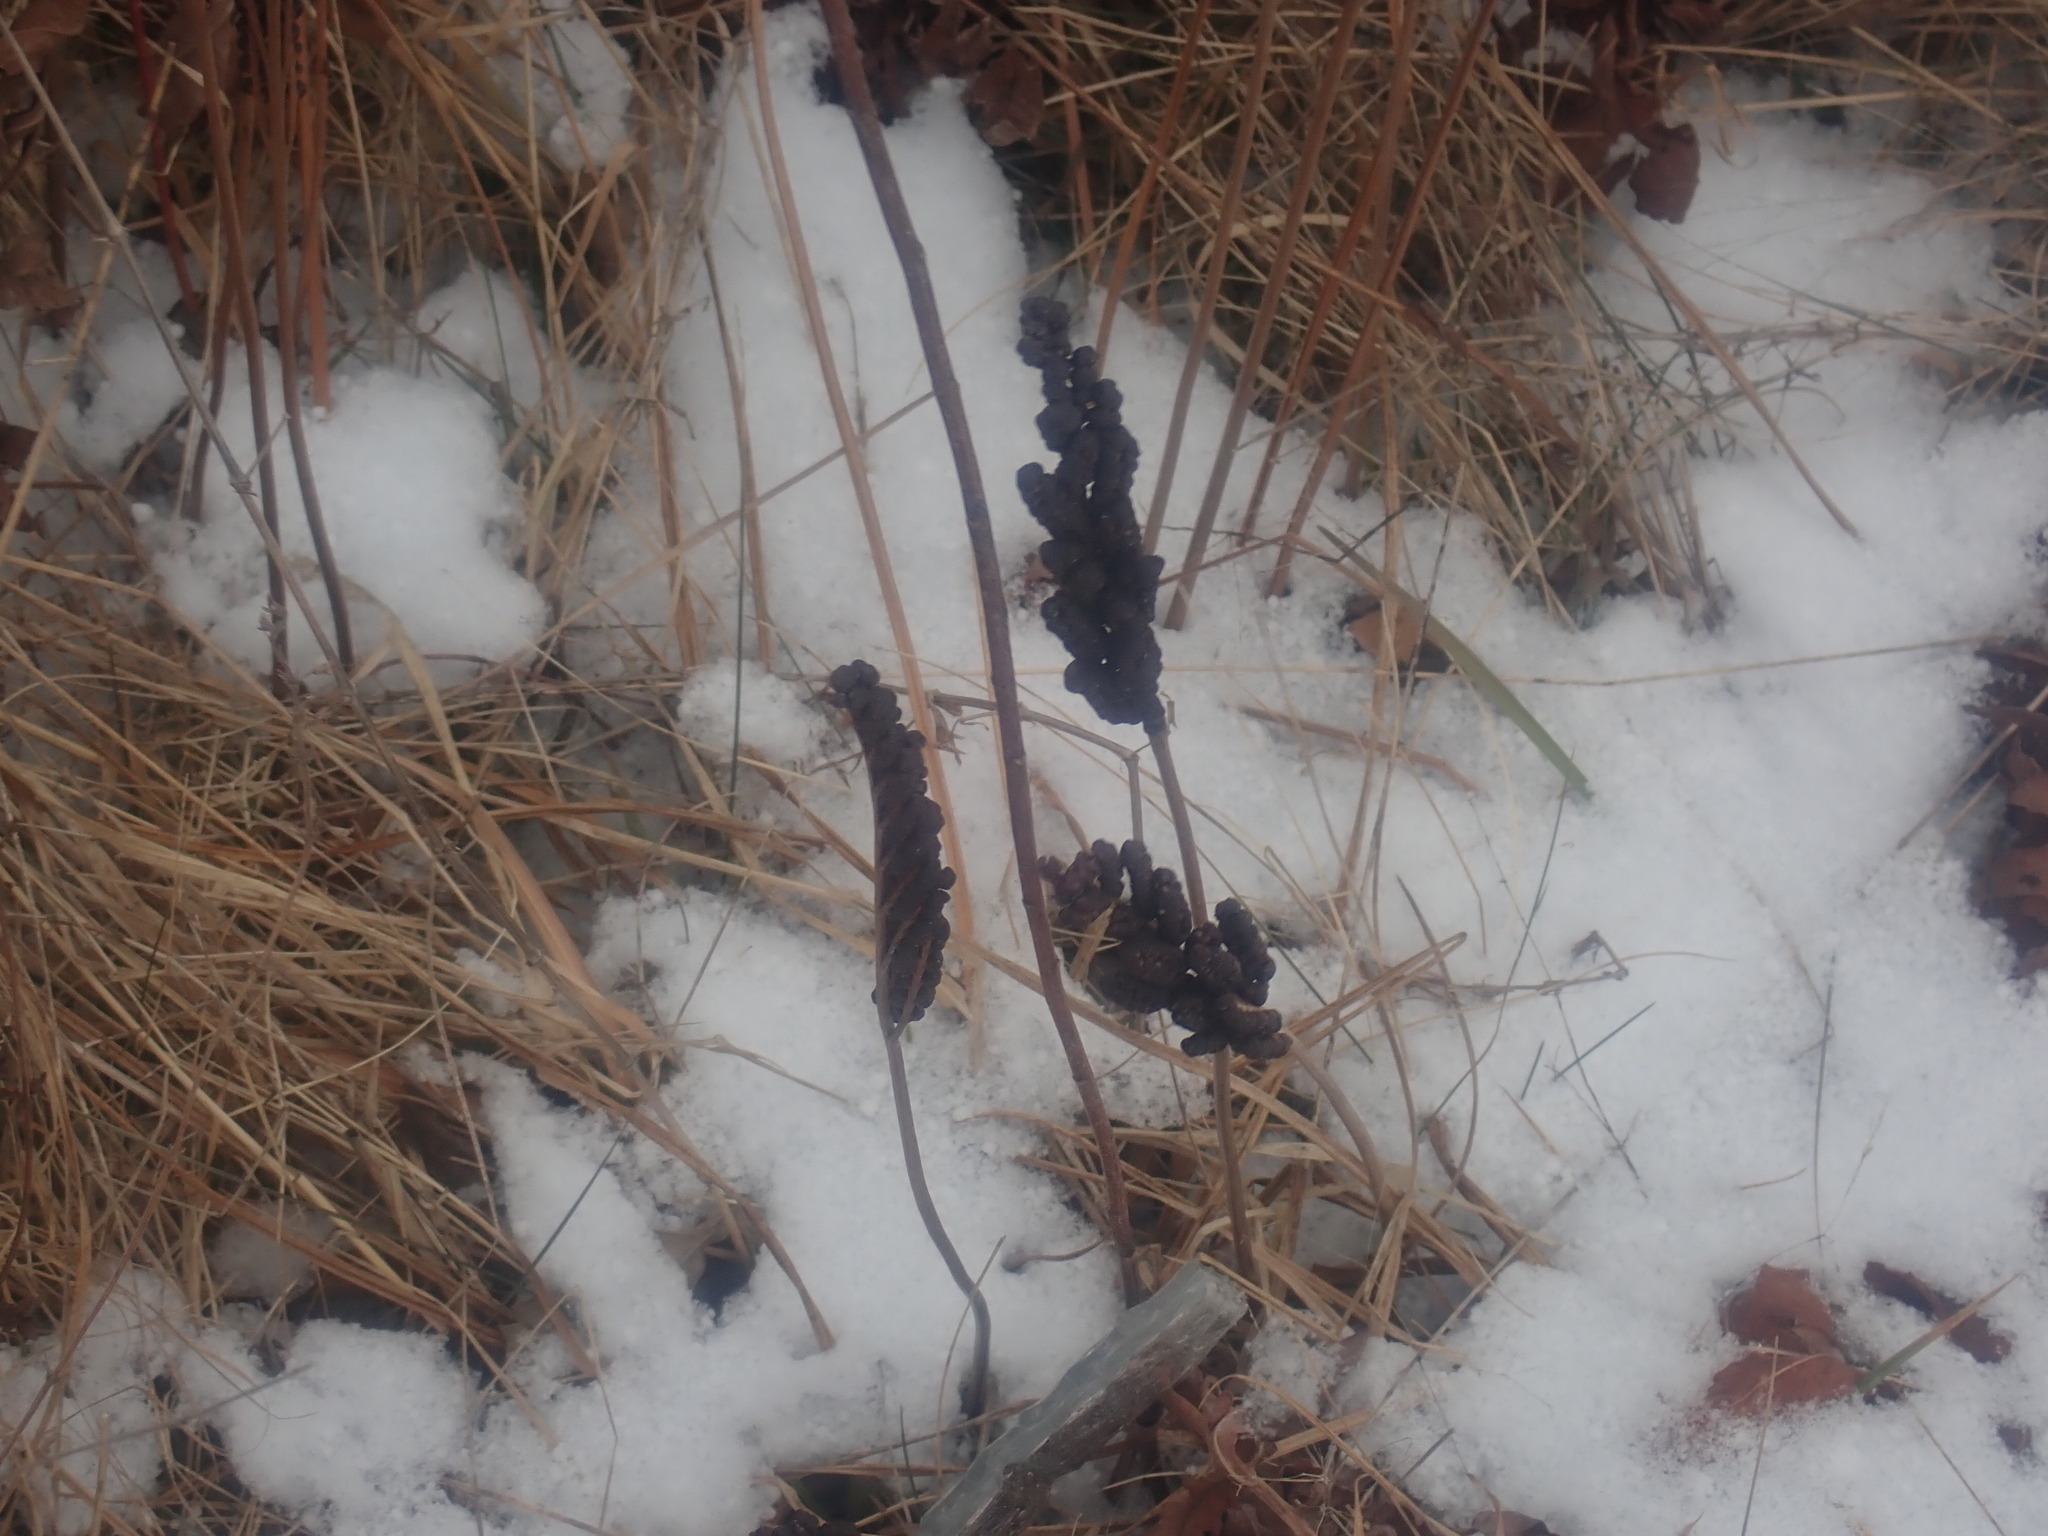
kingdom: Plantae
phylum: Tracheophyta
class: Polypodiopsida
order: Polypodiales
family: Onocleaceae
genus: Onoclea
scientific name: Onoclea sensibilis
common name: Sensitive fern
